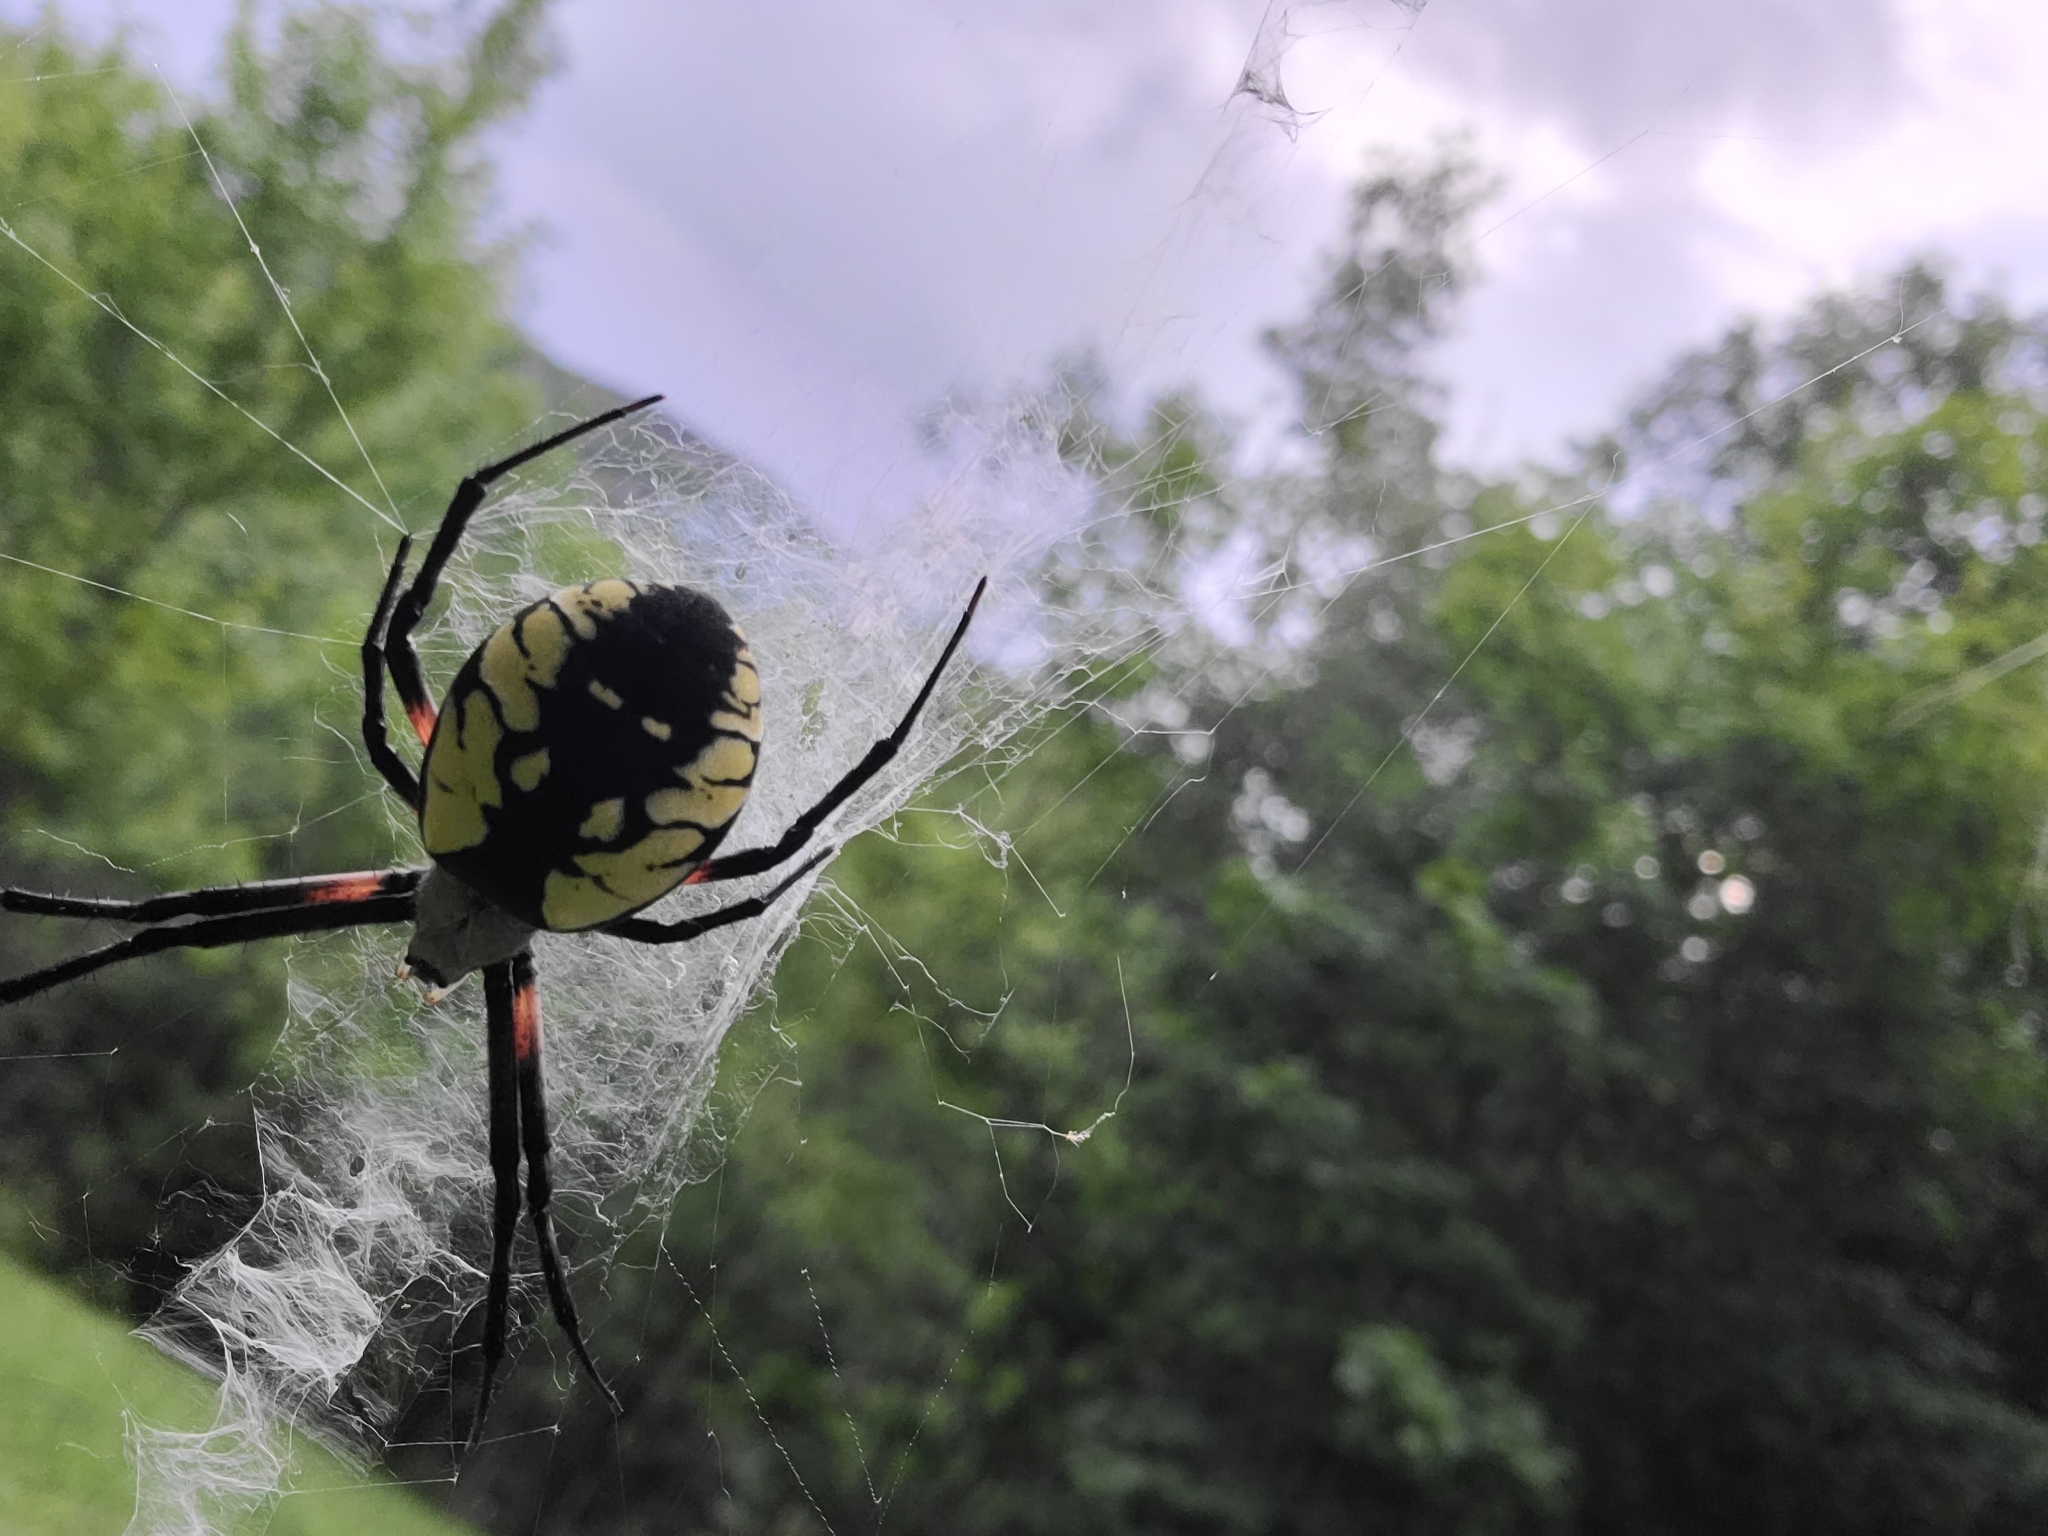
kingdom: Animalia
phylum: Arthropoda
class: Arachnida
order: Araneae
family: Araneidae
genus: Argiope
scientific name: Argiope aurantia
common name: Orb weavers
